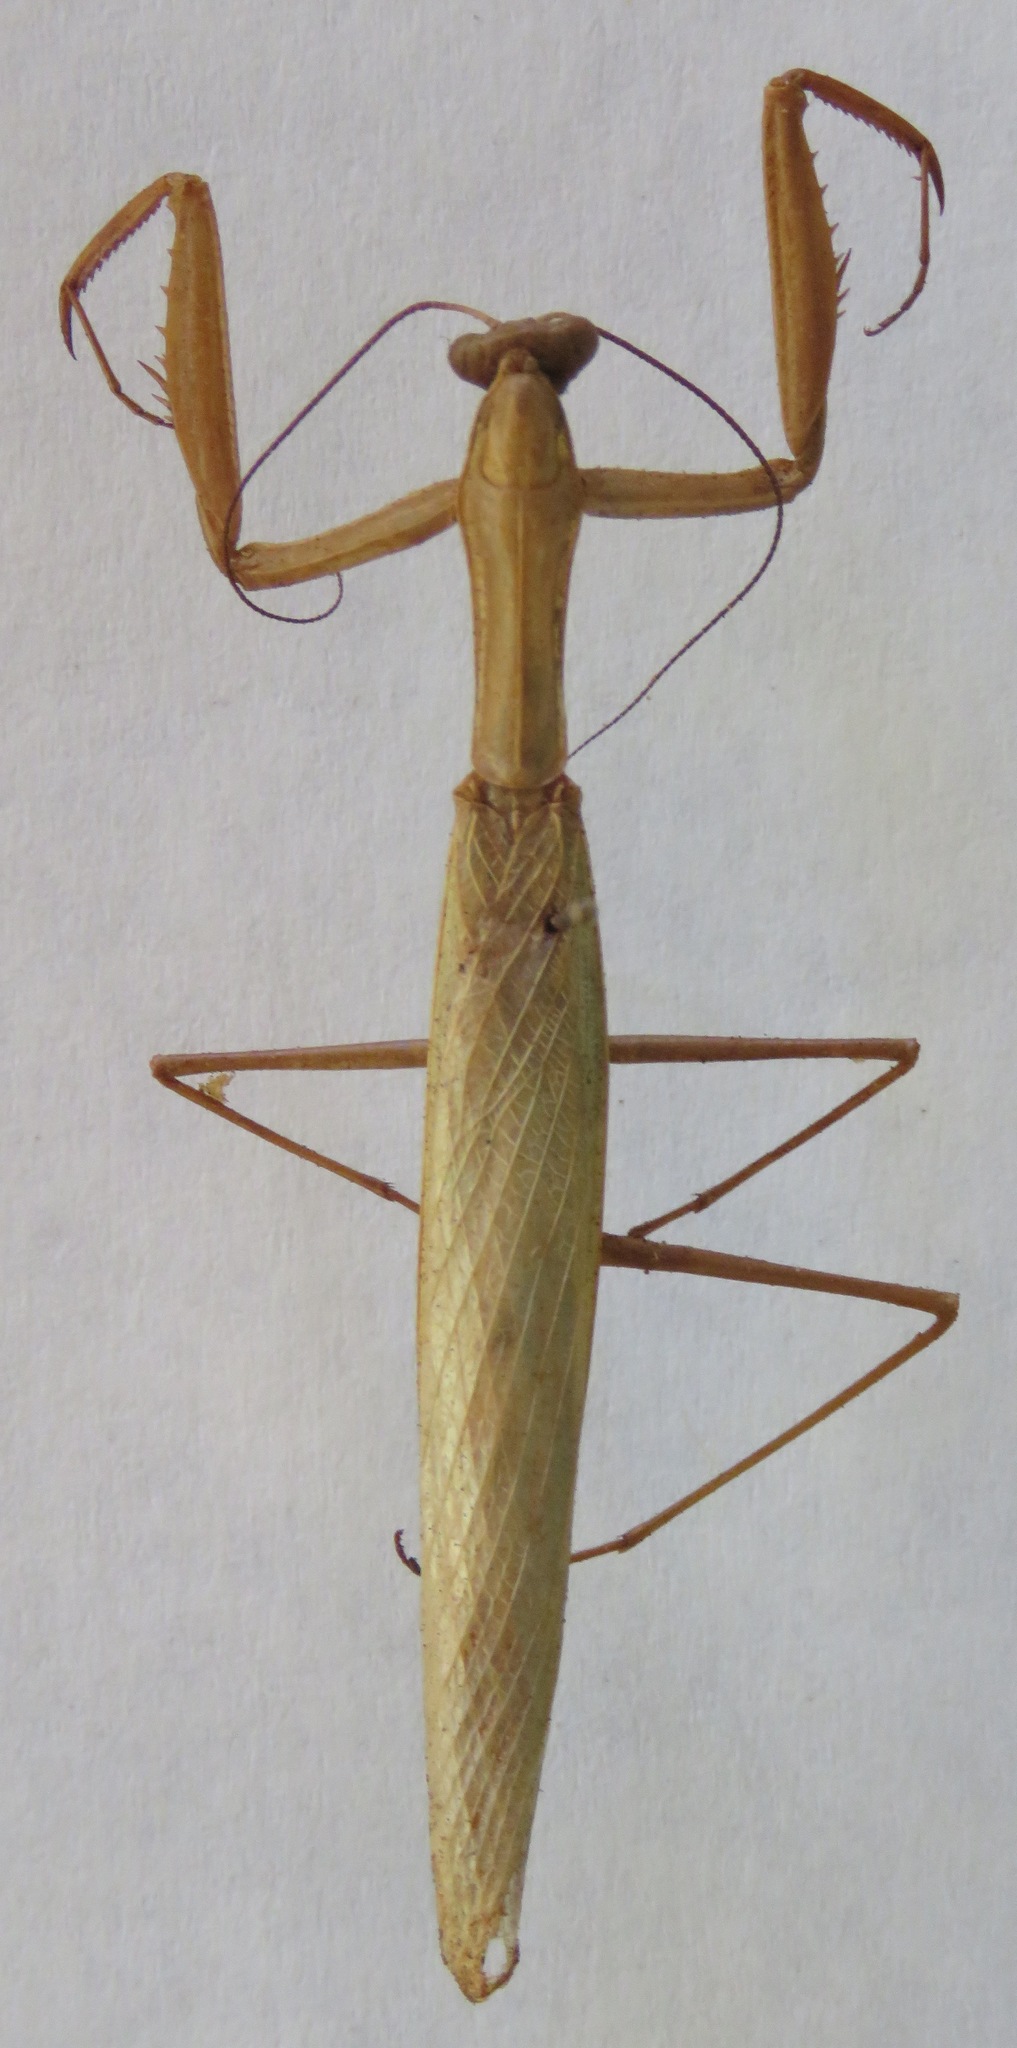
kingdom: Animalia
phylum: Arthropoda
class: Insecta
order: Mantodea
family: Mantidae
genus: Mantis
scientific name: Mantis religiosa
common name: Praying mantis
